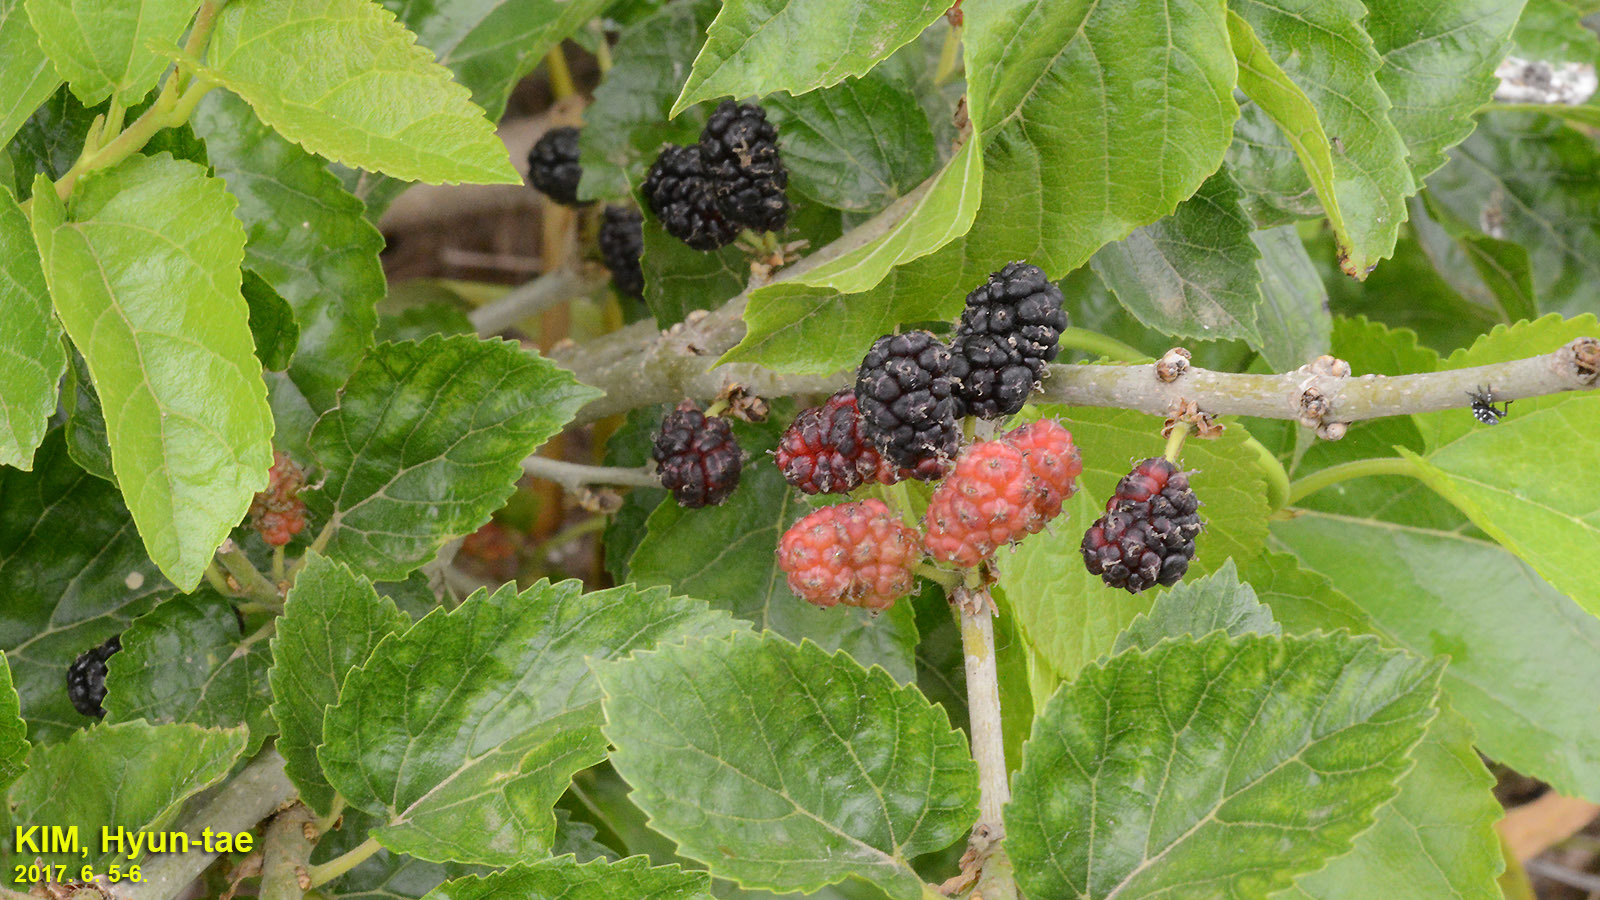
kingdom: Plantae
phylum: Tracheophyta
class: Magnoliopsida
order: Rosales
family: Moraceae
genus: Morus
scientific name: Morus alba
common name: White mulberry
